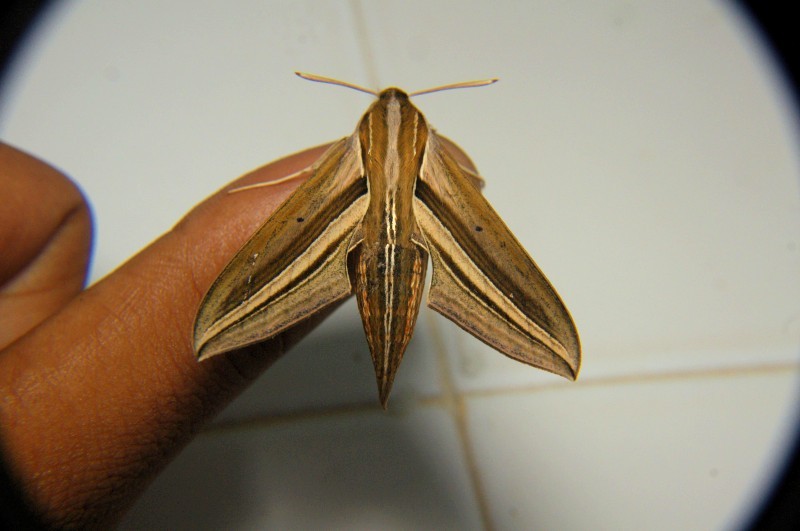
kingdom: Animalia
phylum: Arthropoda
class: Insecta
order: Lepidoptera
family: Sphingidae
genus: Theretra
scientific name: Theretra oldenlandiae
